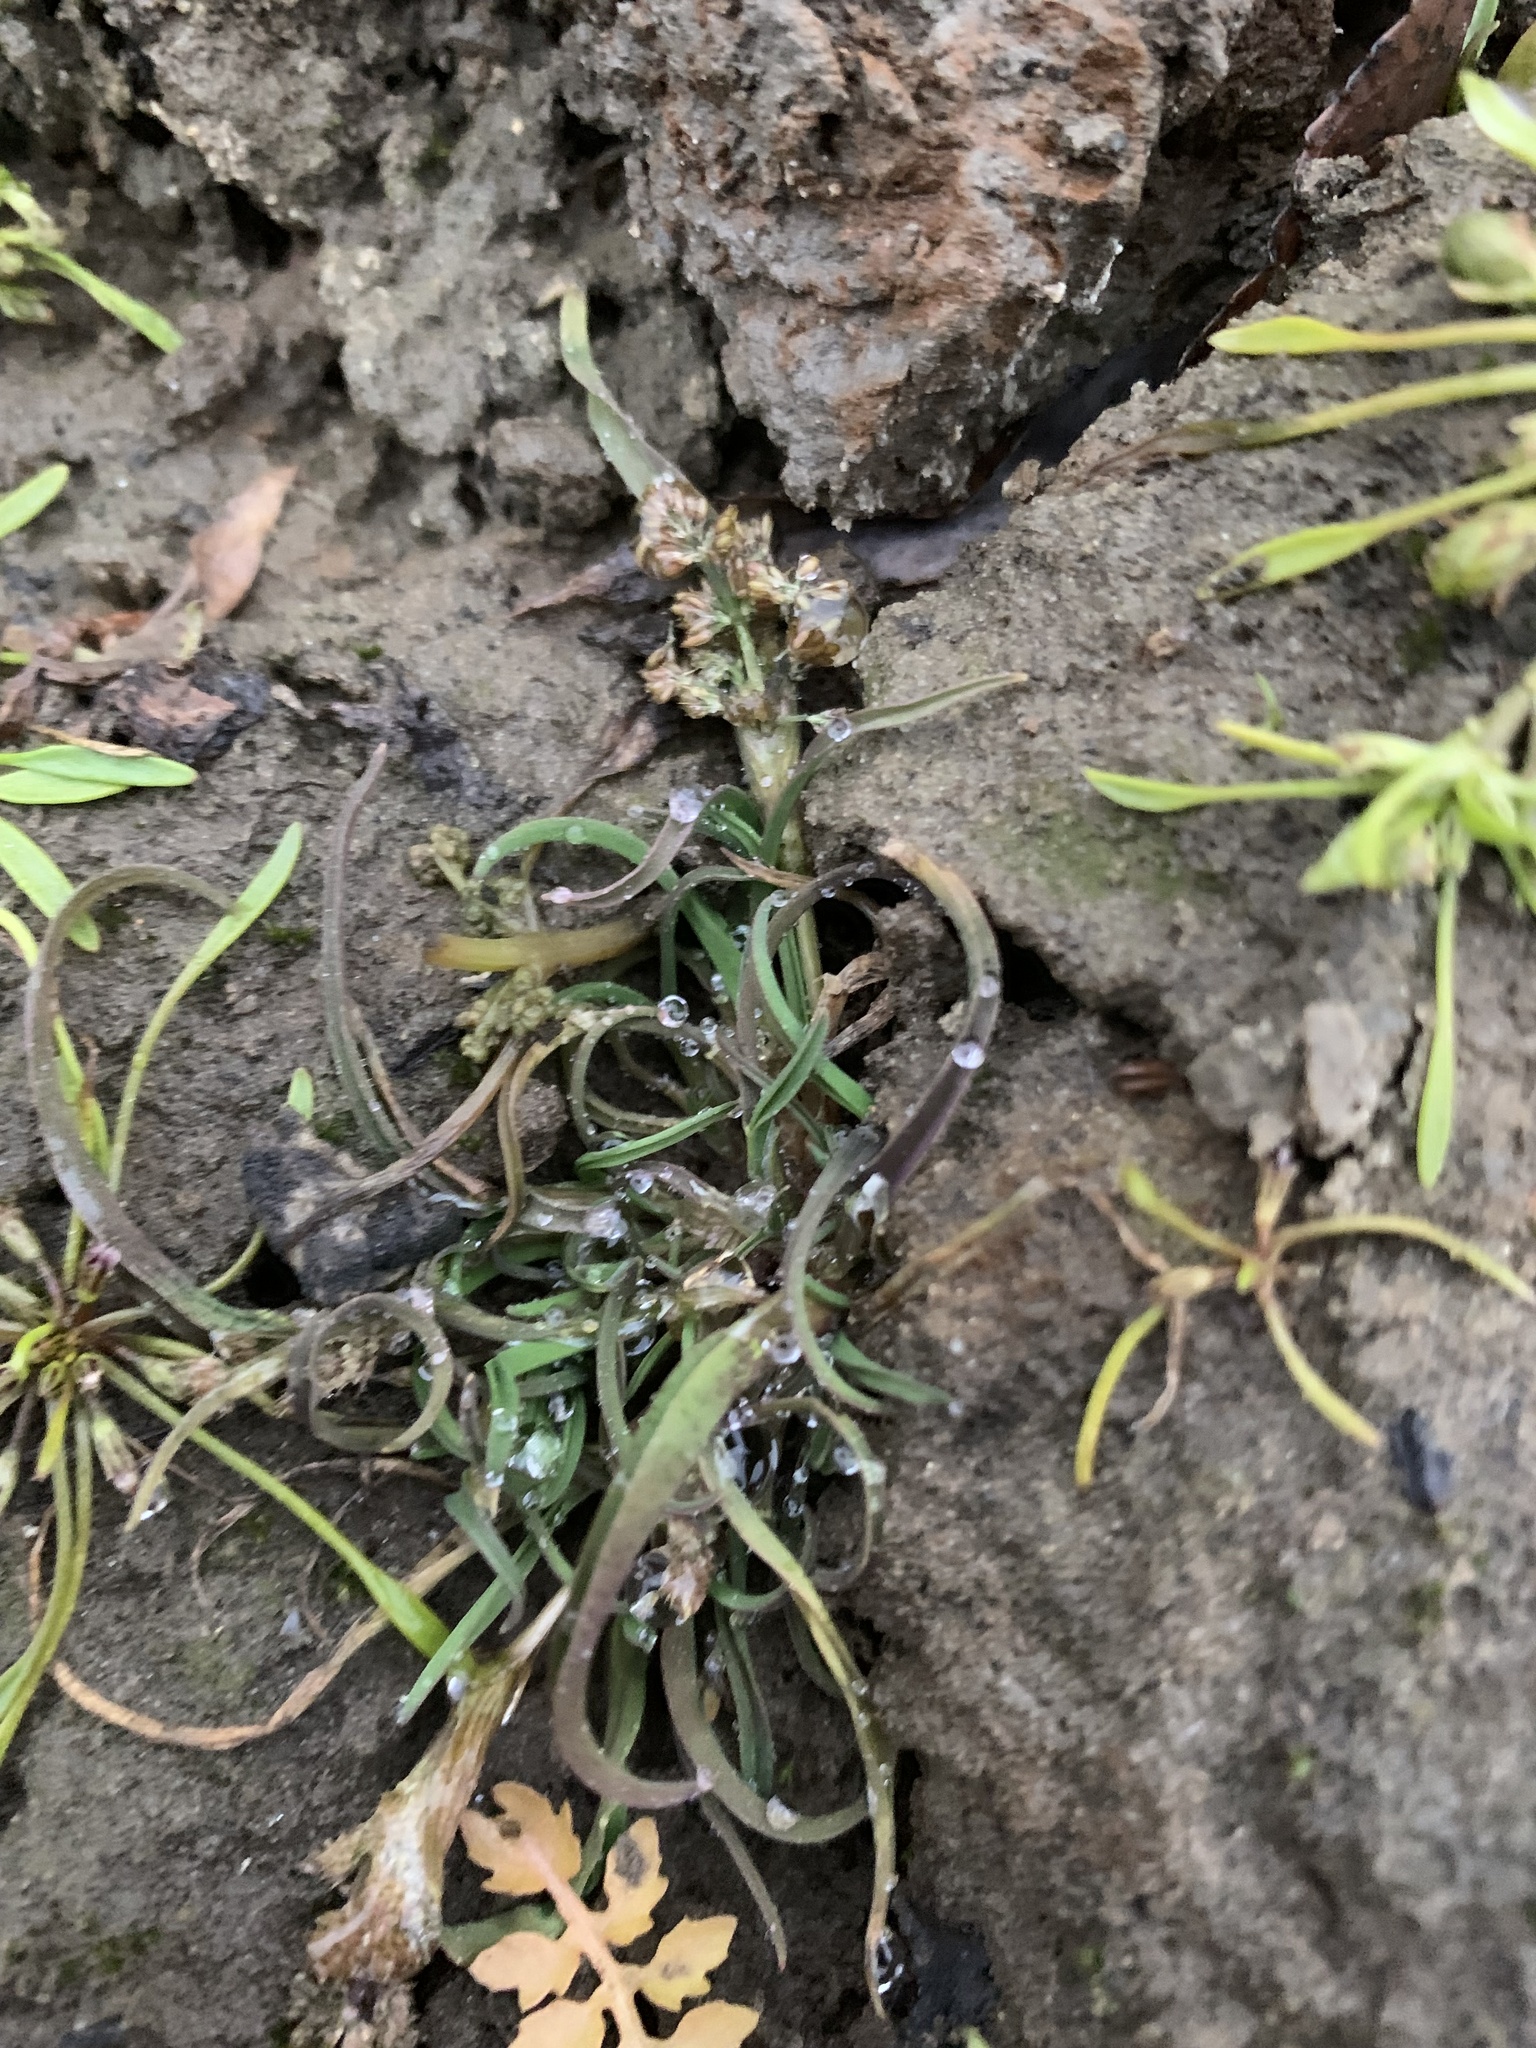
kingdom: Plantae
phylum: Tracheophyta
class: Liliopsida
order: Poales
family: Poaceae
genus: Coleanthus
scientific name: Coleanthus subtilis
